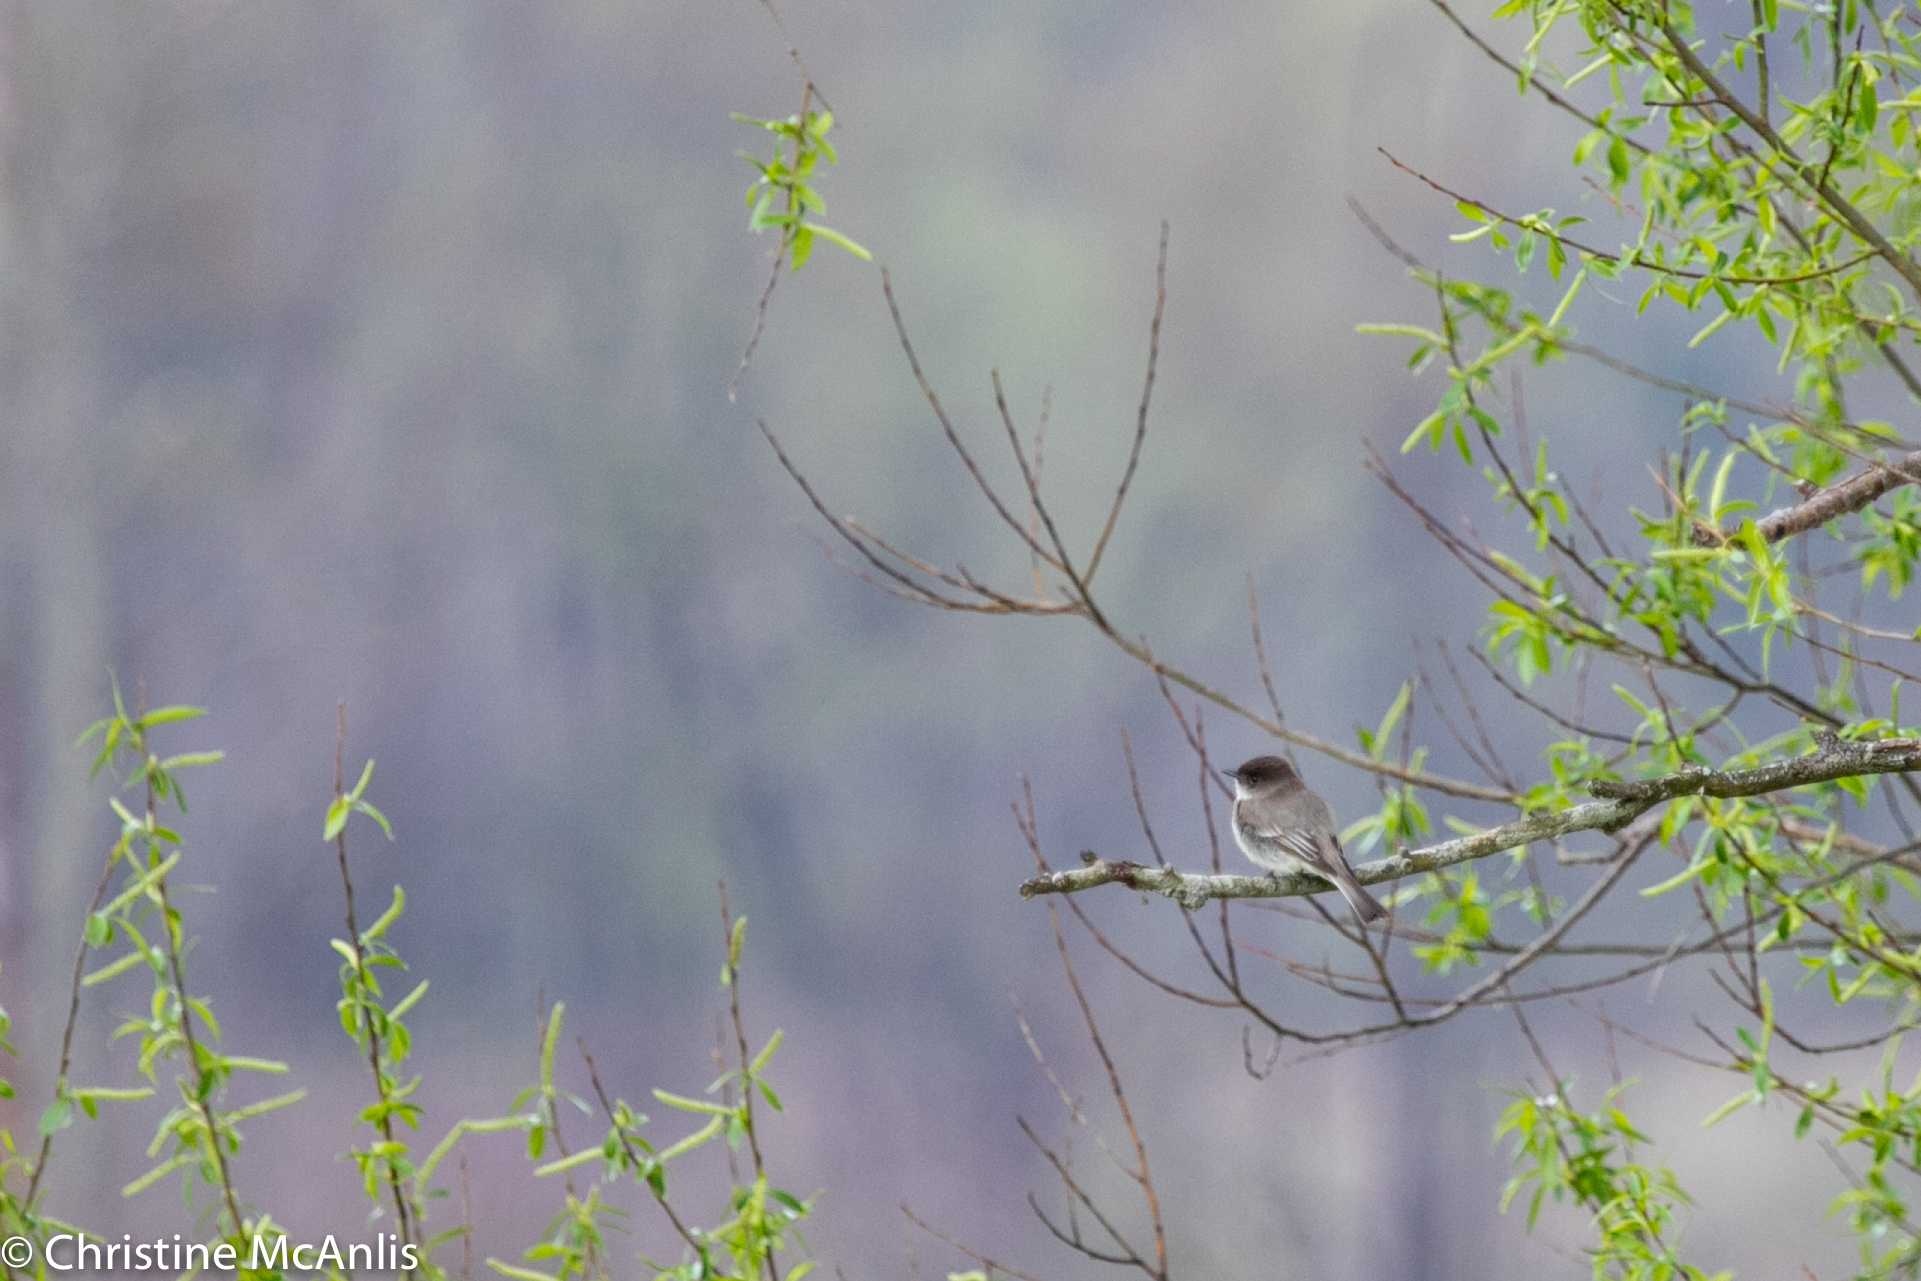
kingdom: Animalia
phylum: Chordata
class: Aves
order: Passeriformes
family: Tyrannidae
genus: Sayornis
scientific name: Sayornis phoebe
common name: Eastern phoebe
